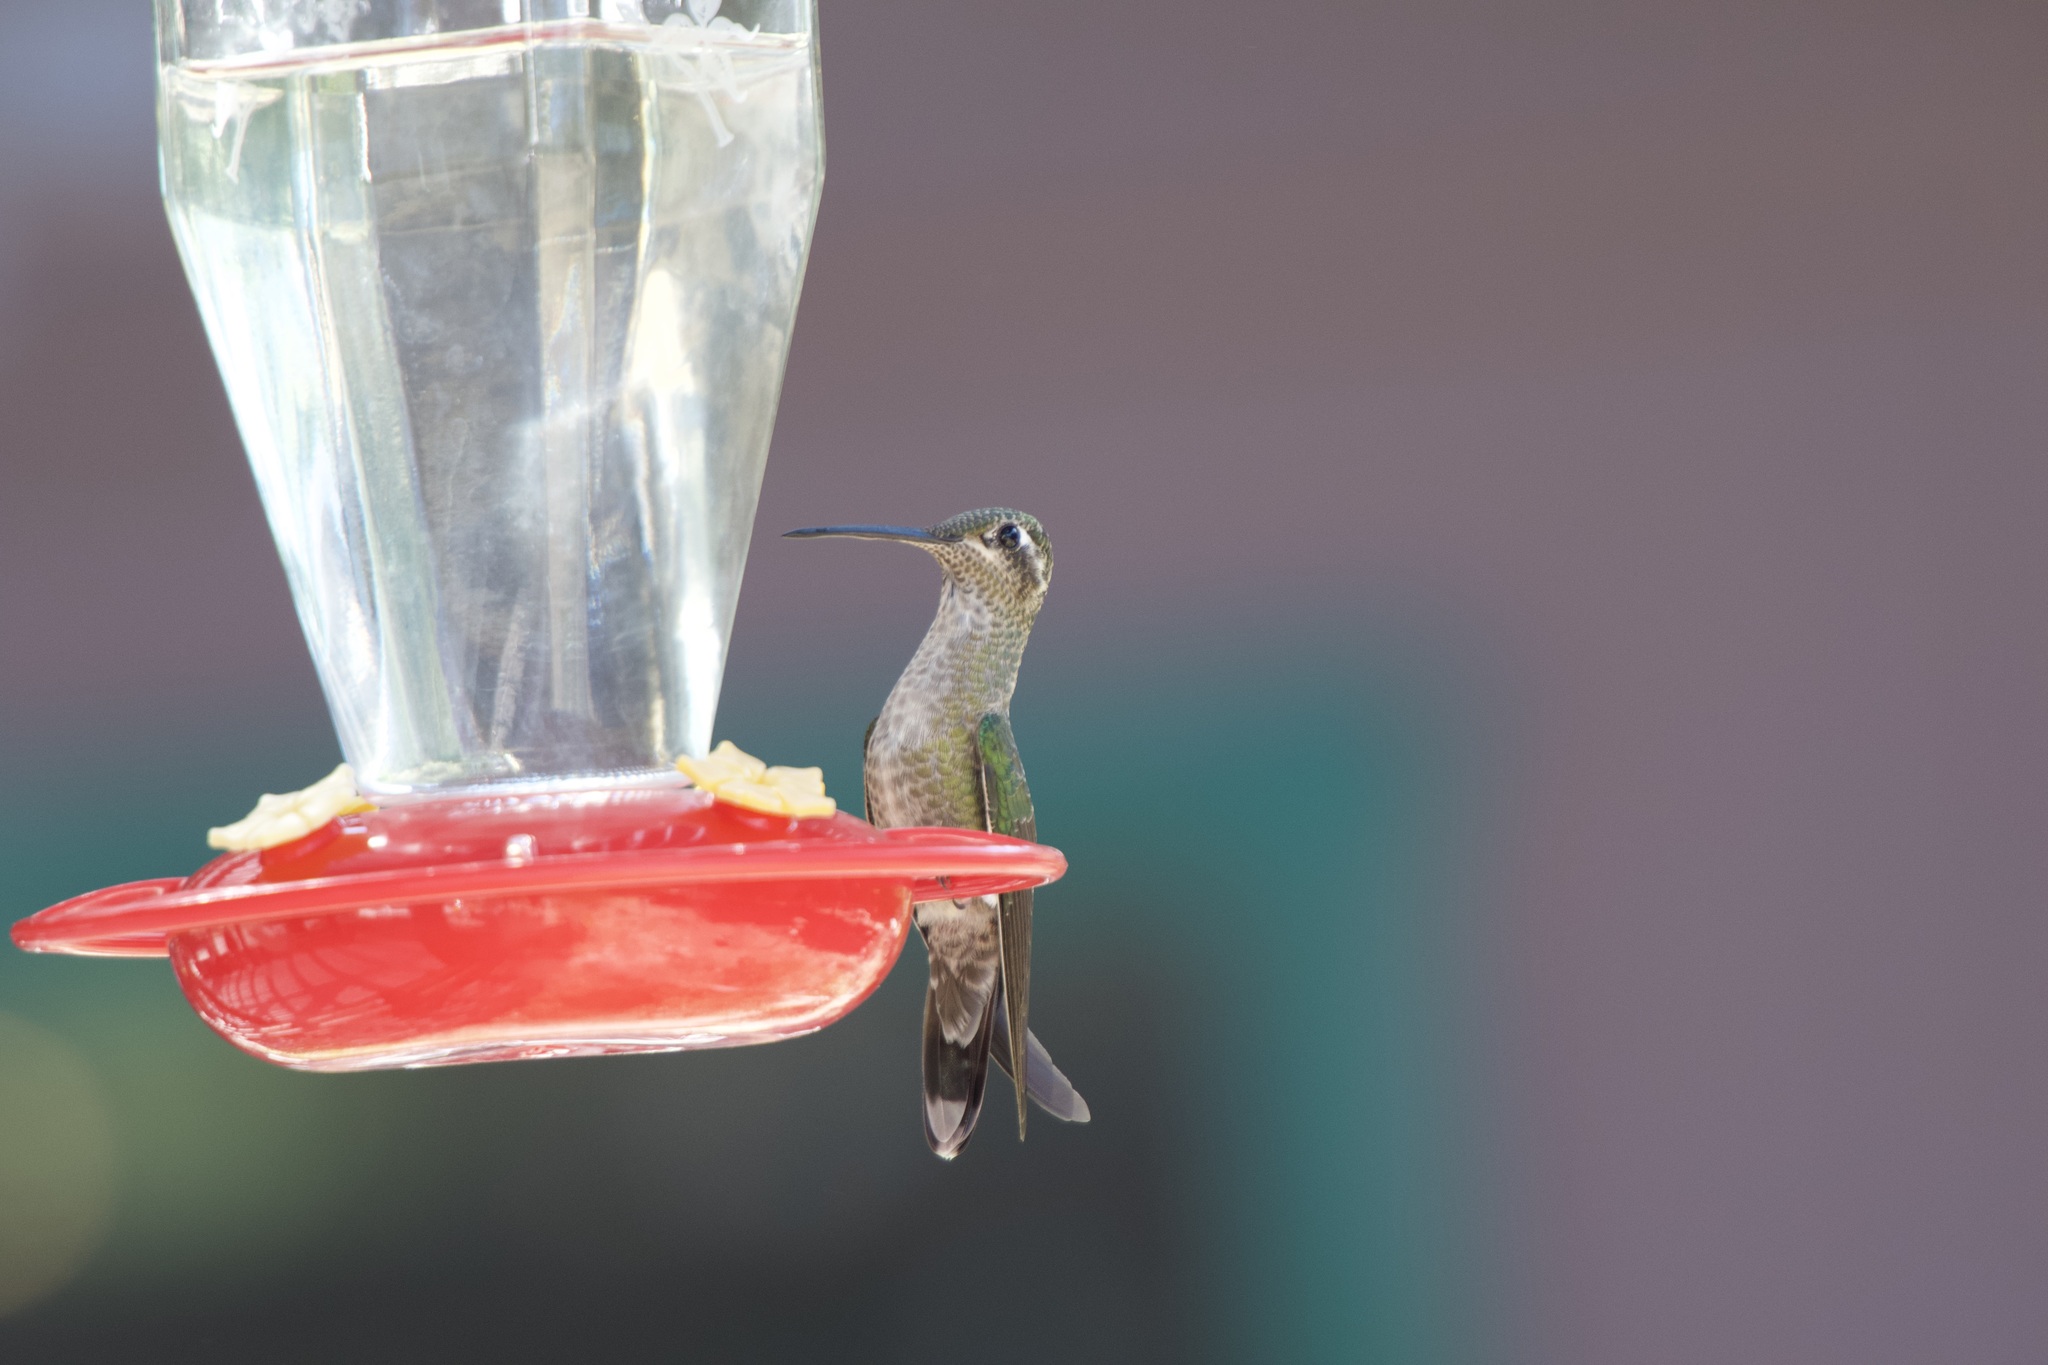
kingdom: Animalia
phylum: Chordata
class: Aves
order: Apodiformes
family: Trochilidae
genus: Eugenes
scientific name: Eugenes fulgens
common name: Magnificent hummingbird
